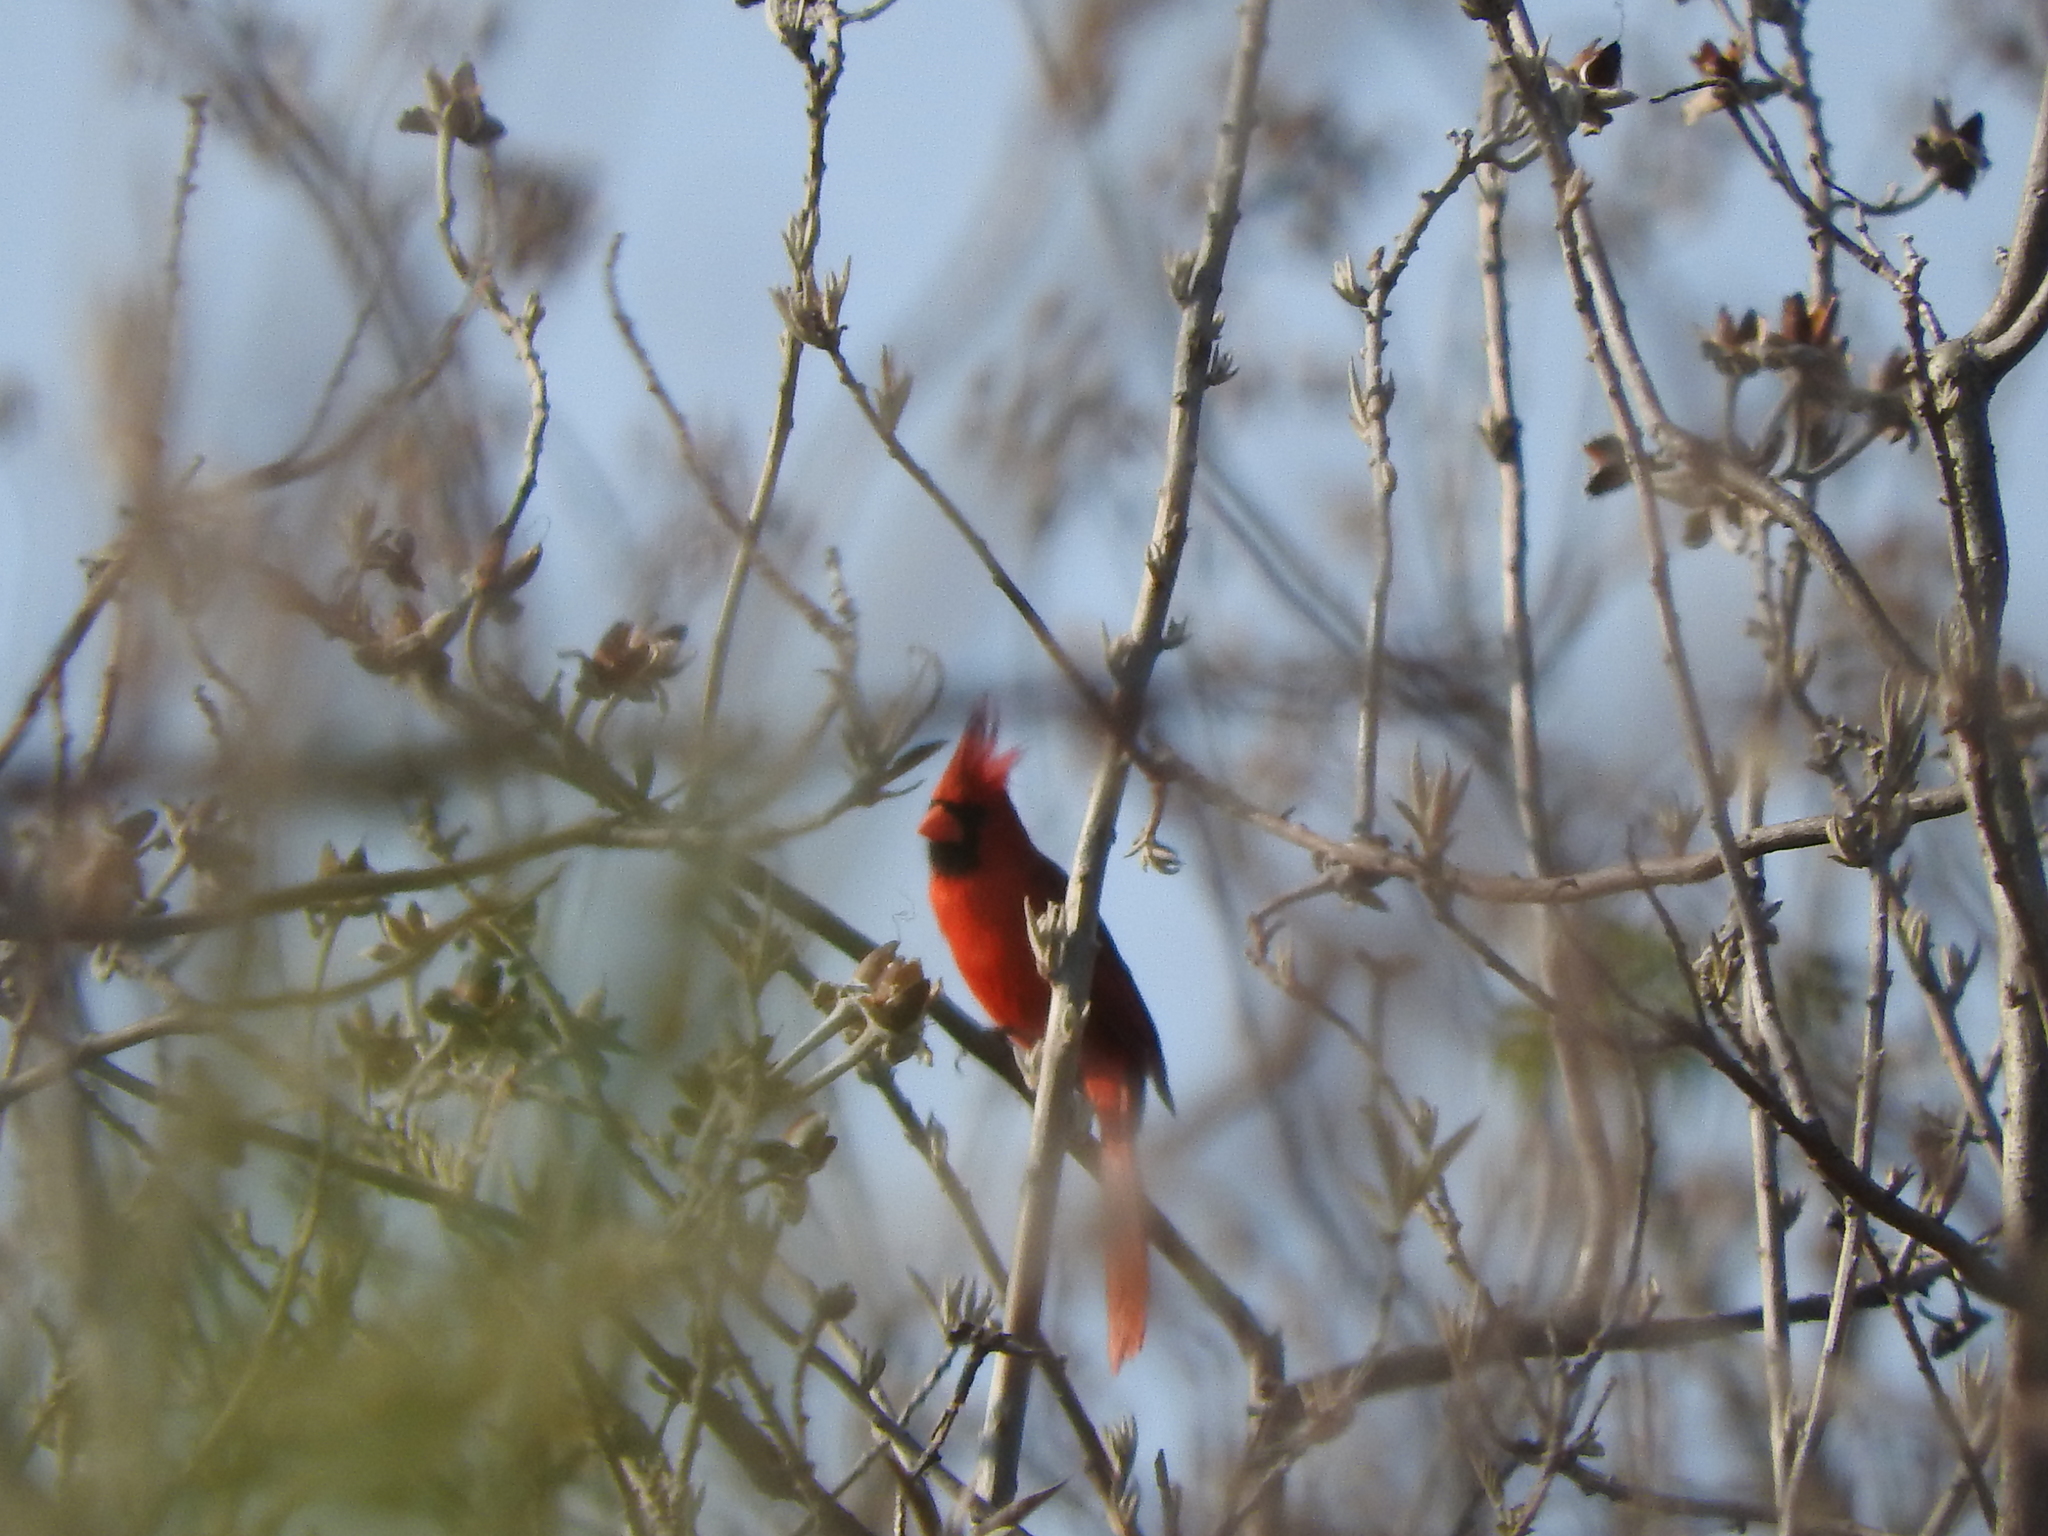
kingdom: Animalia
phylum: Chordata
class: Aves
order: Passeriformes
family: Cardinalidae
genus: Cardinalis
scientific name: Cardinalis cardinalis
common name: Northern cardinal
